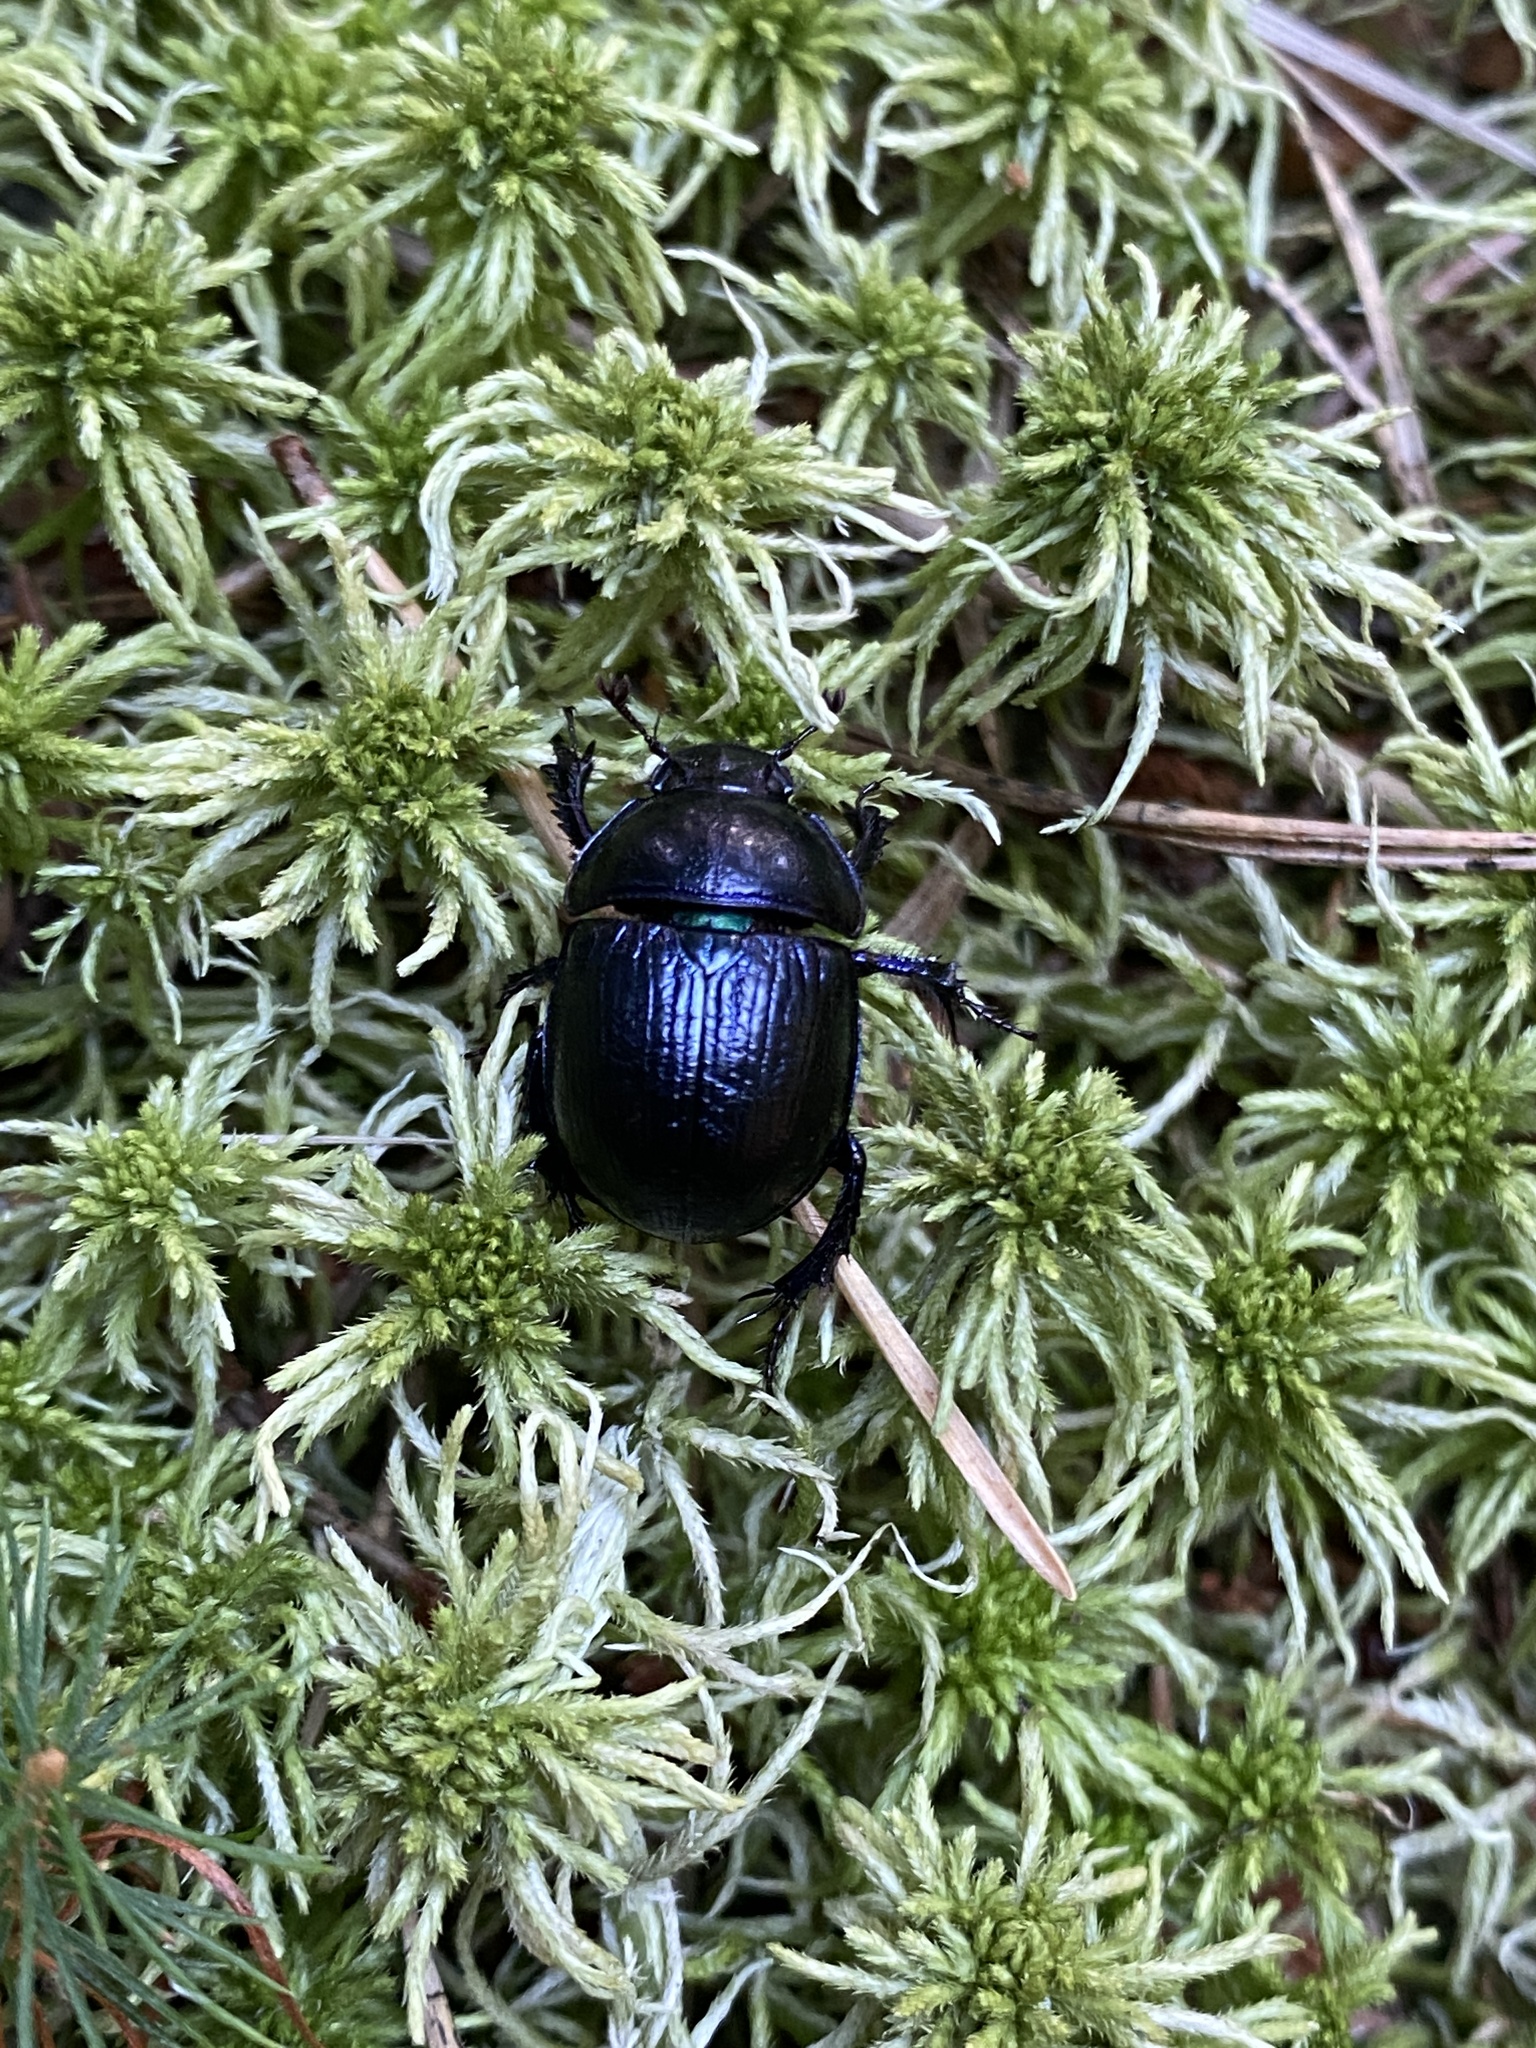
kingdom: Animalia
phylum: Arthropoda
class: Insecta
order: Coleoptera
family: Geotrupidae
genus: Anoplotrupes
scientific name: Anoplotrupes stercorosus
